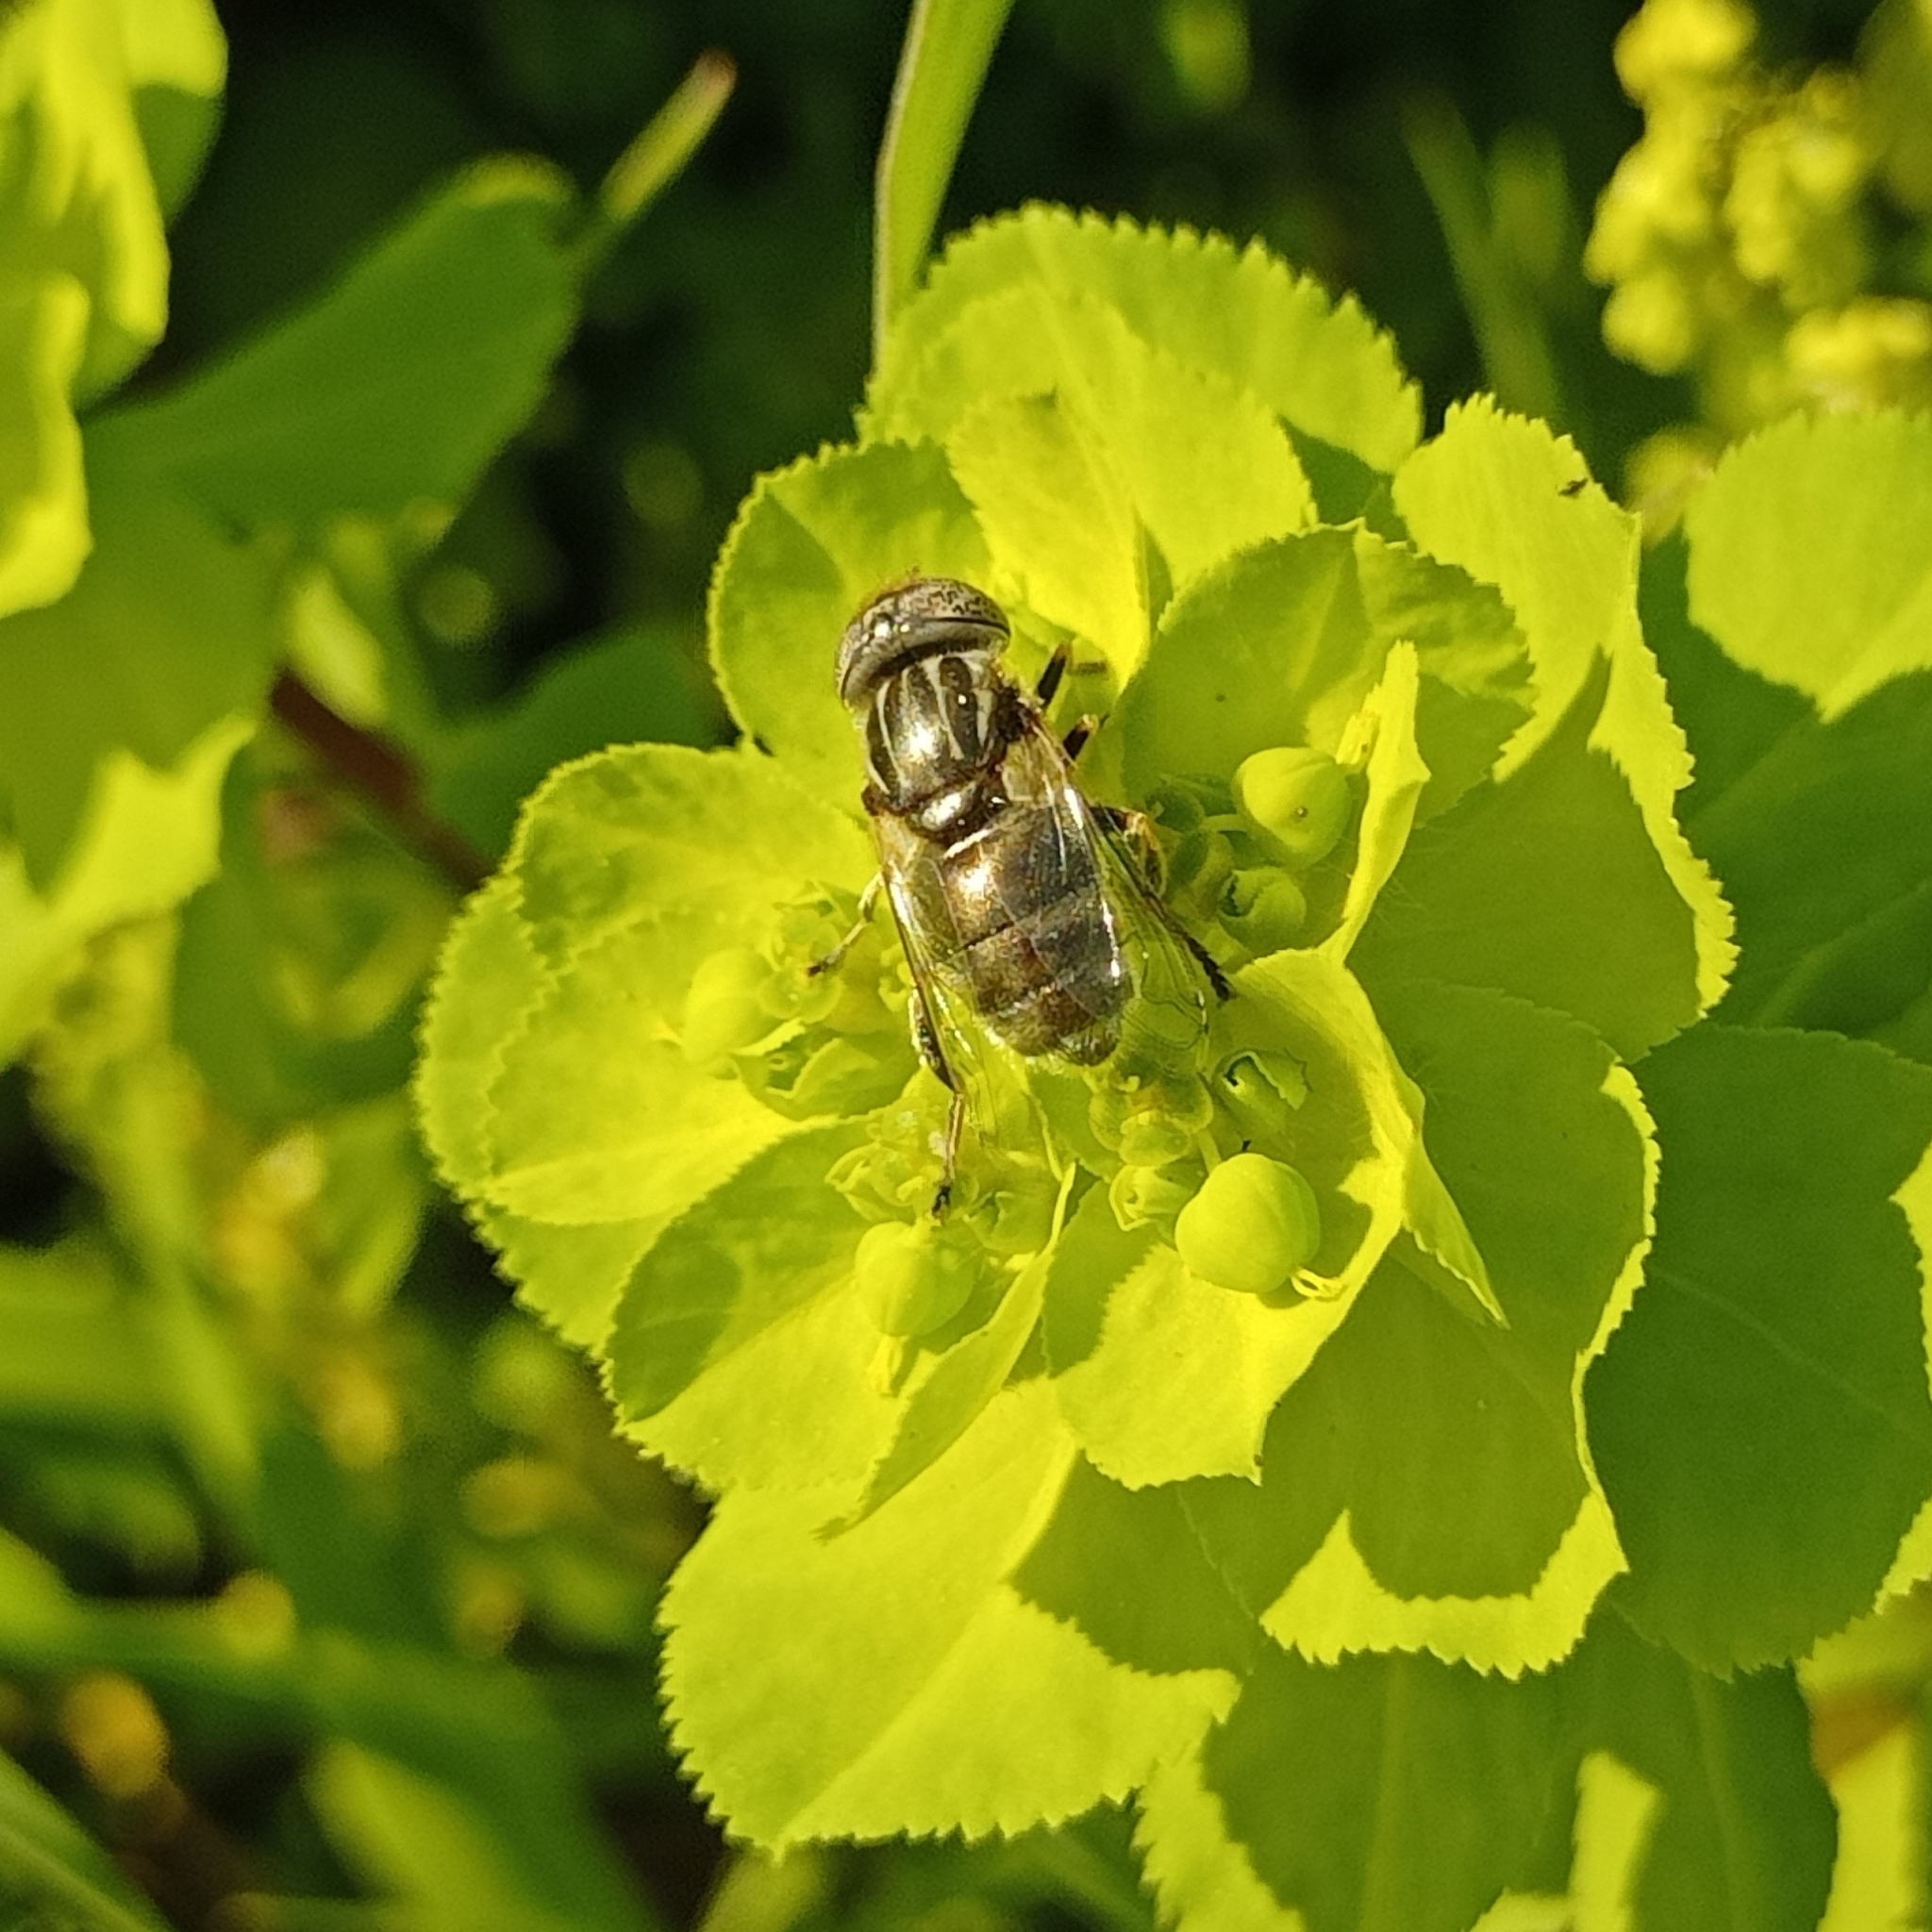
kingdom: Animalia
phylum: Arthropoda
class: Insecta
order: Diptera
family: Syrphidae
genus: Eristalinus
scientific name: Eristalinus aeneus
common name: Syrphid fly
